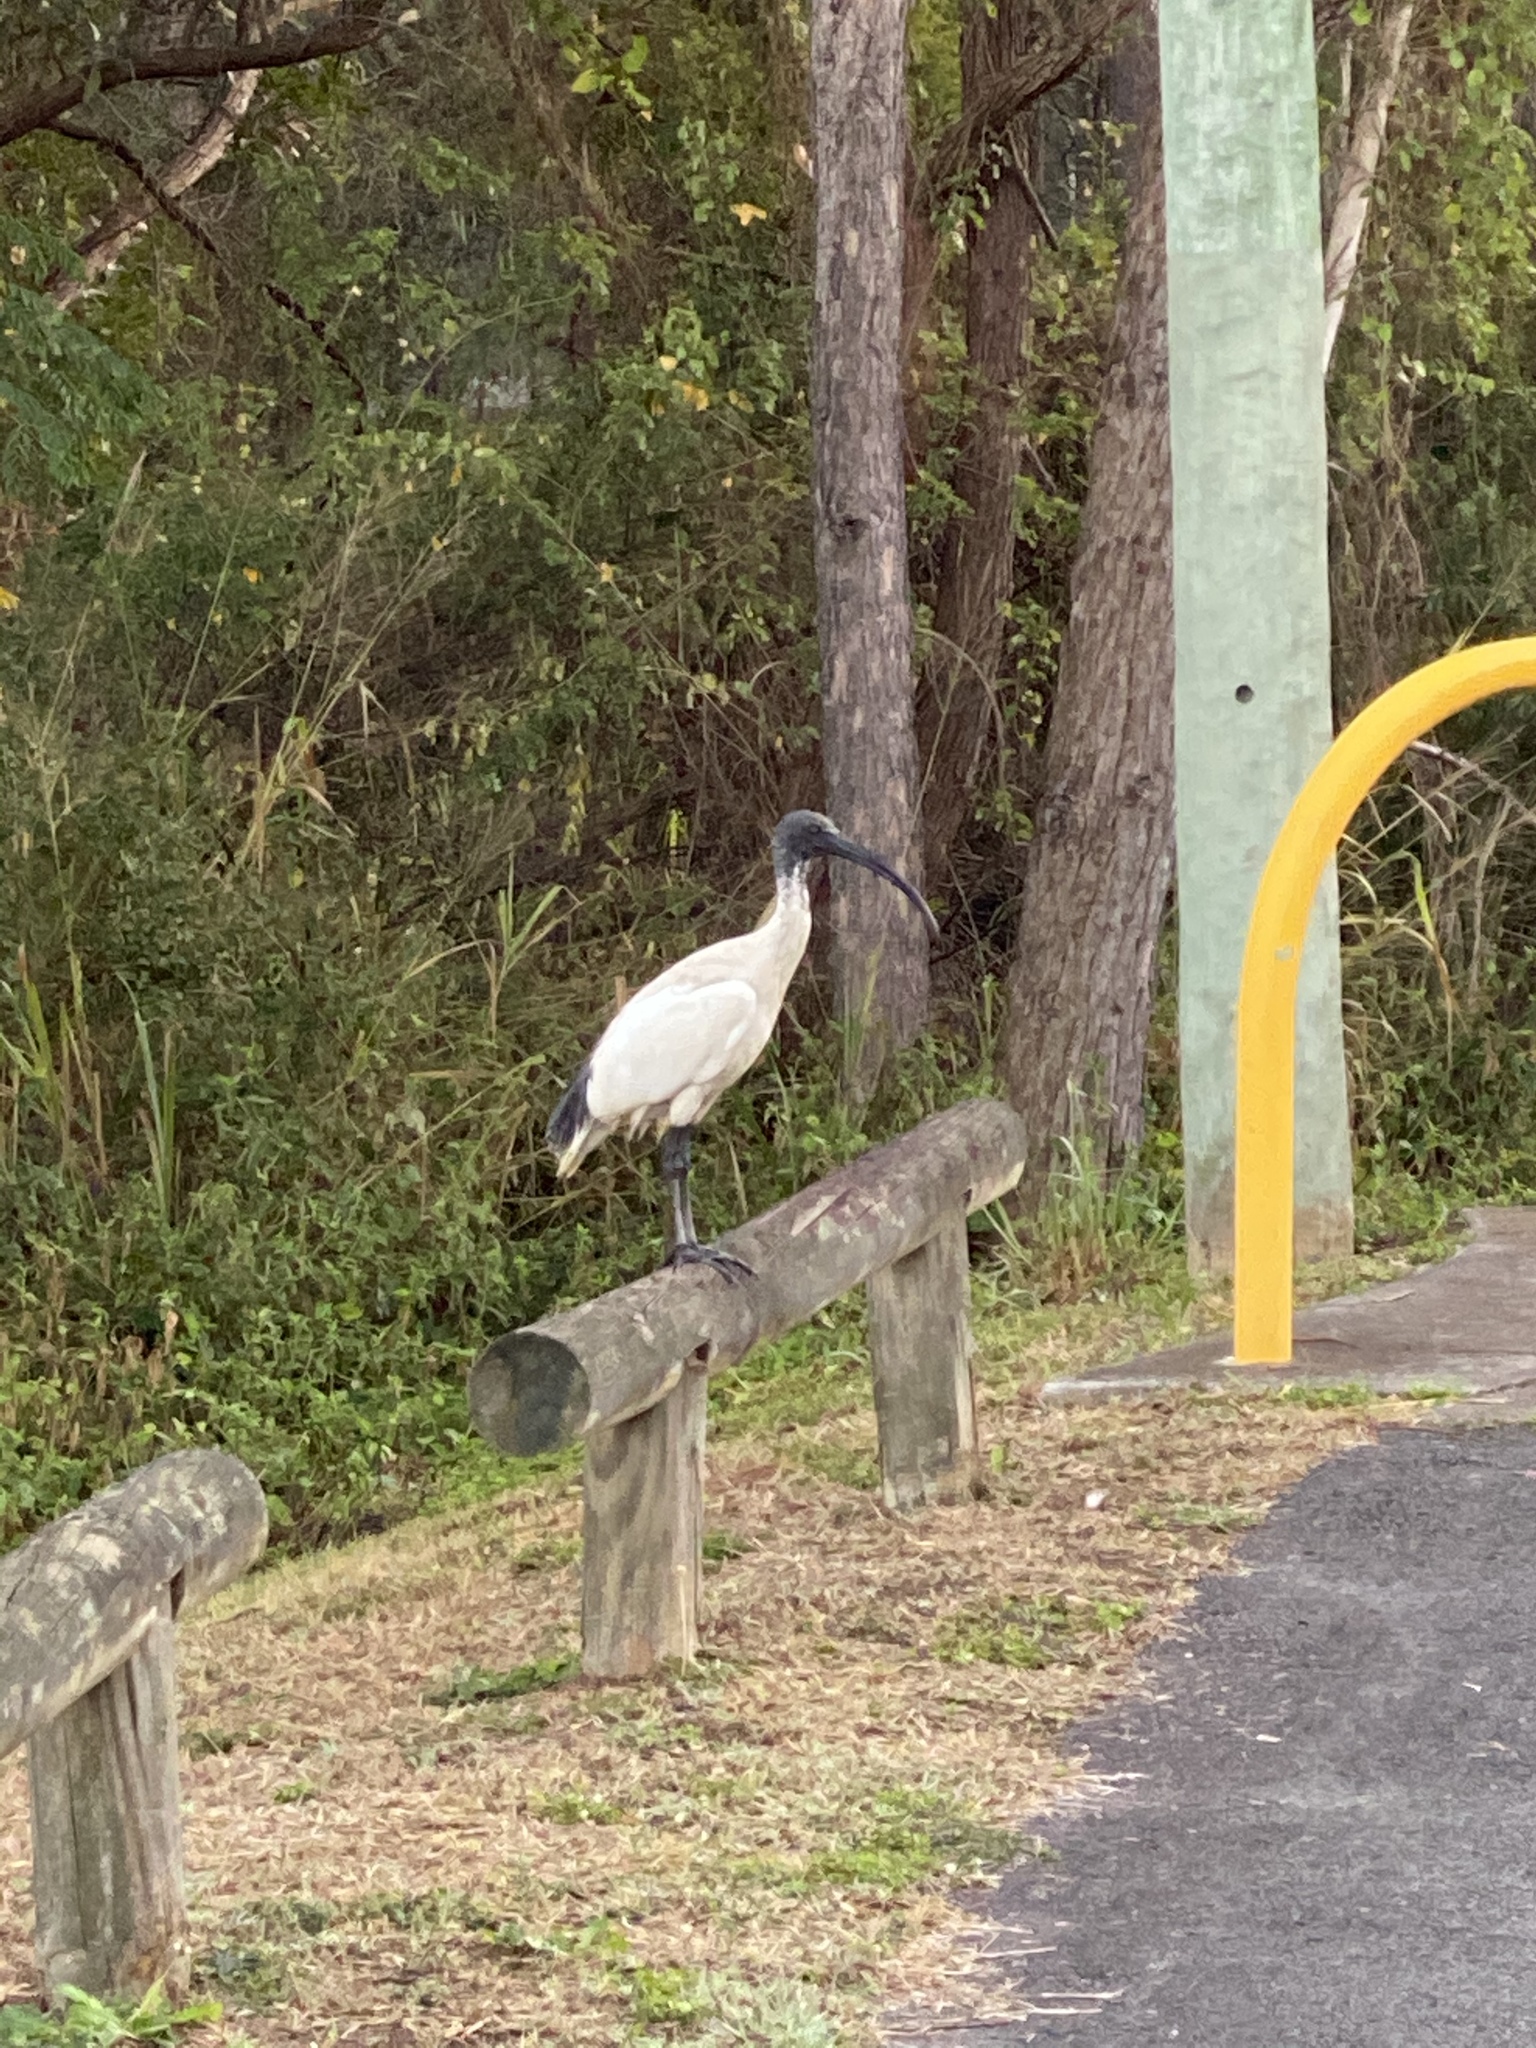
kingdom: Animalia
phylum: Chordata
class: Aves
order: Pelecaniformes
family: Threskiornithidae
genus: Threskiornis
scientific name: Threskiornis molucca
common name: Australian white ibis
